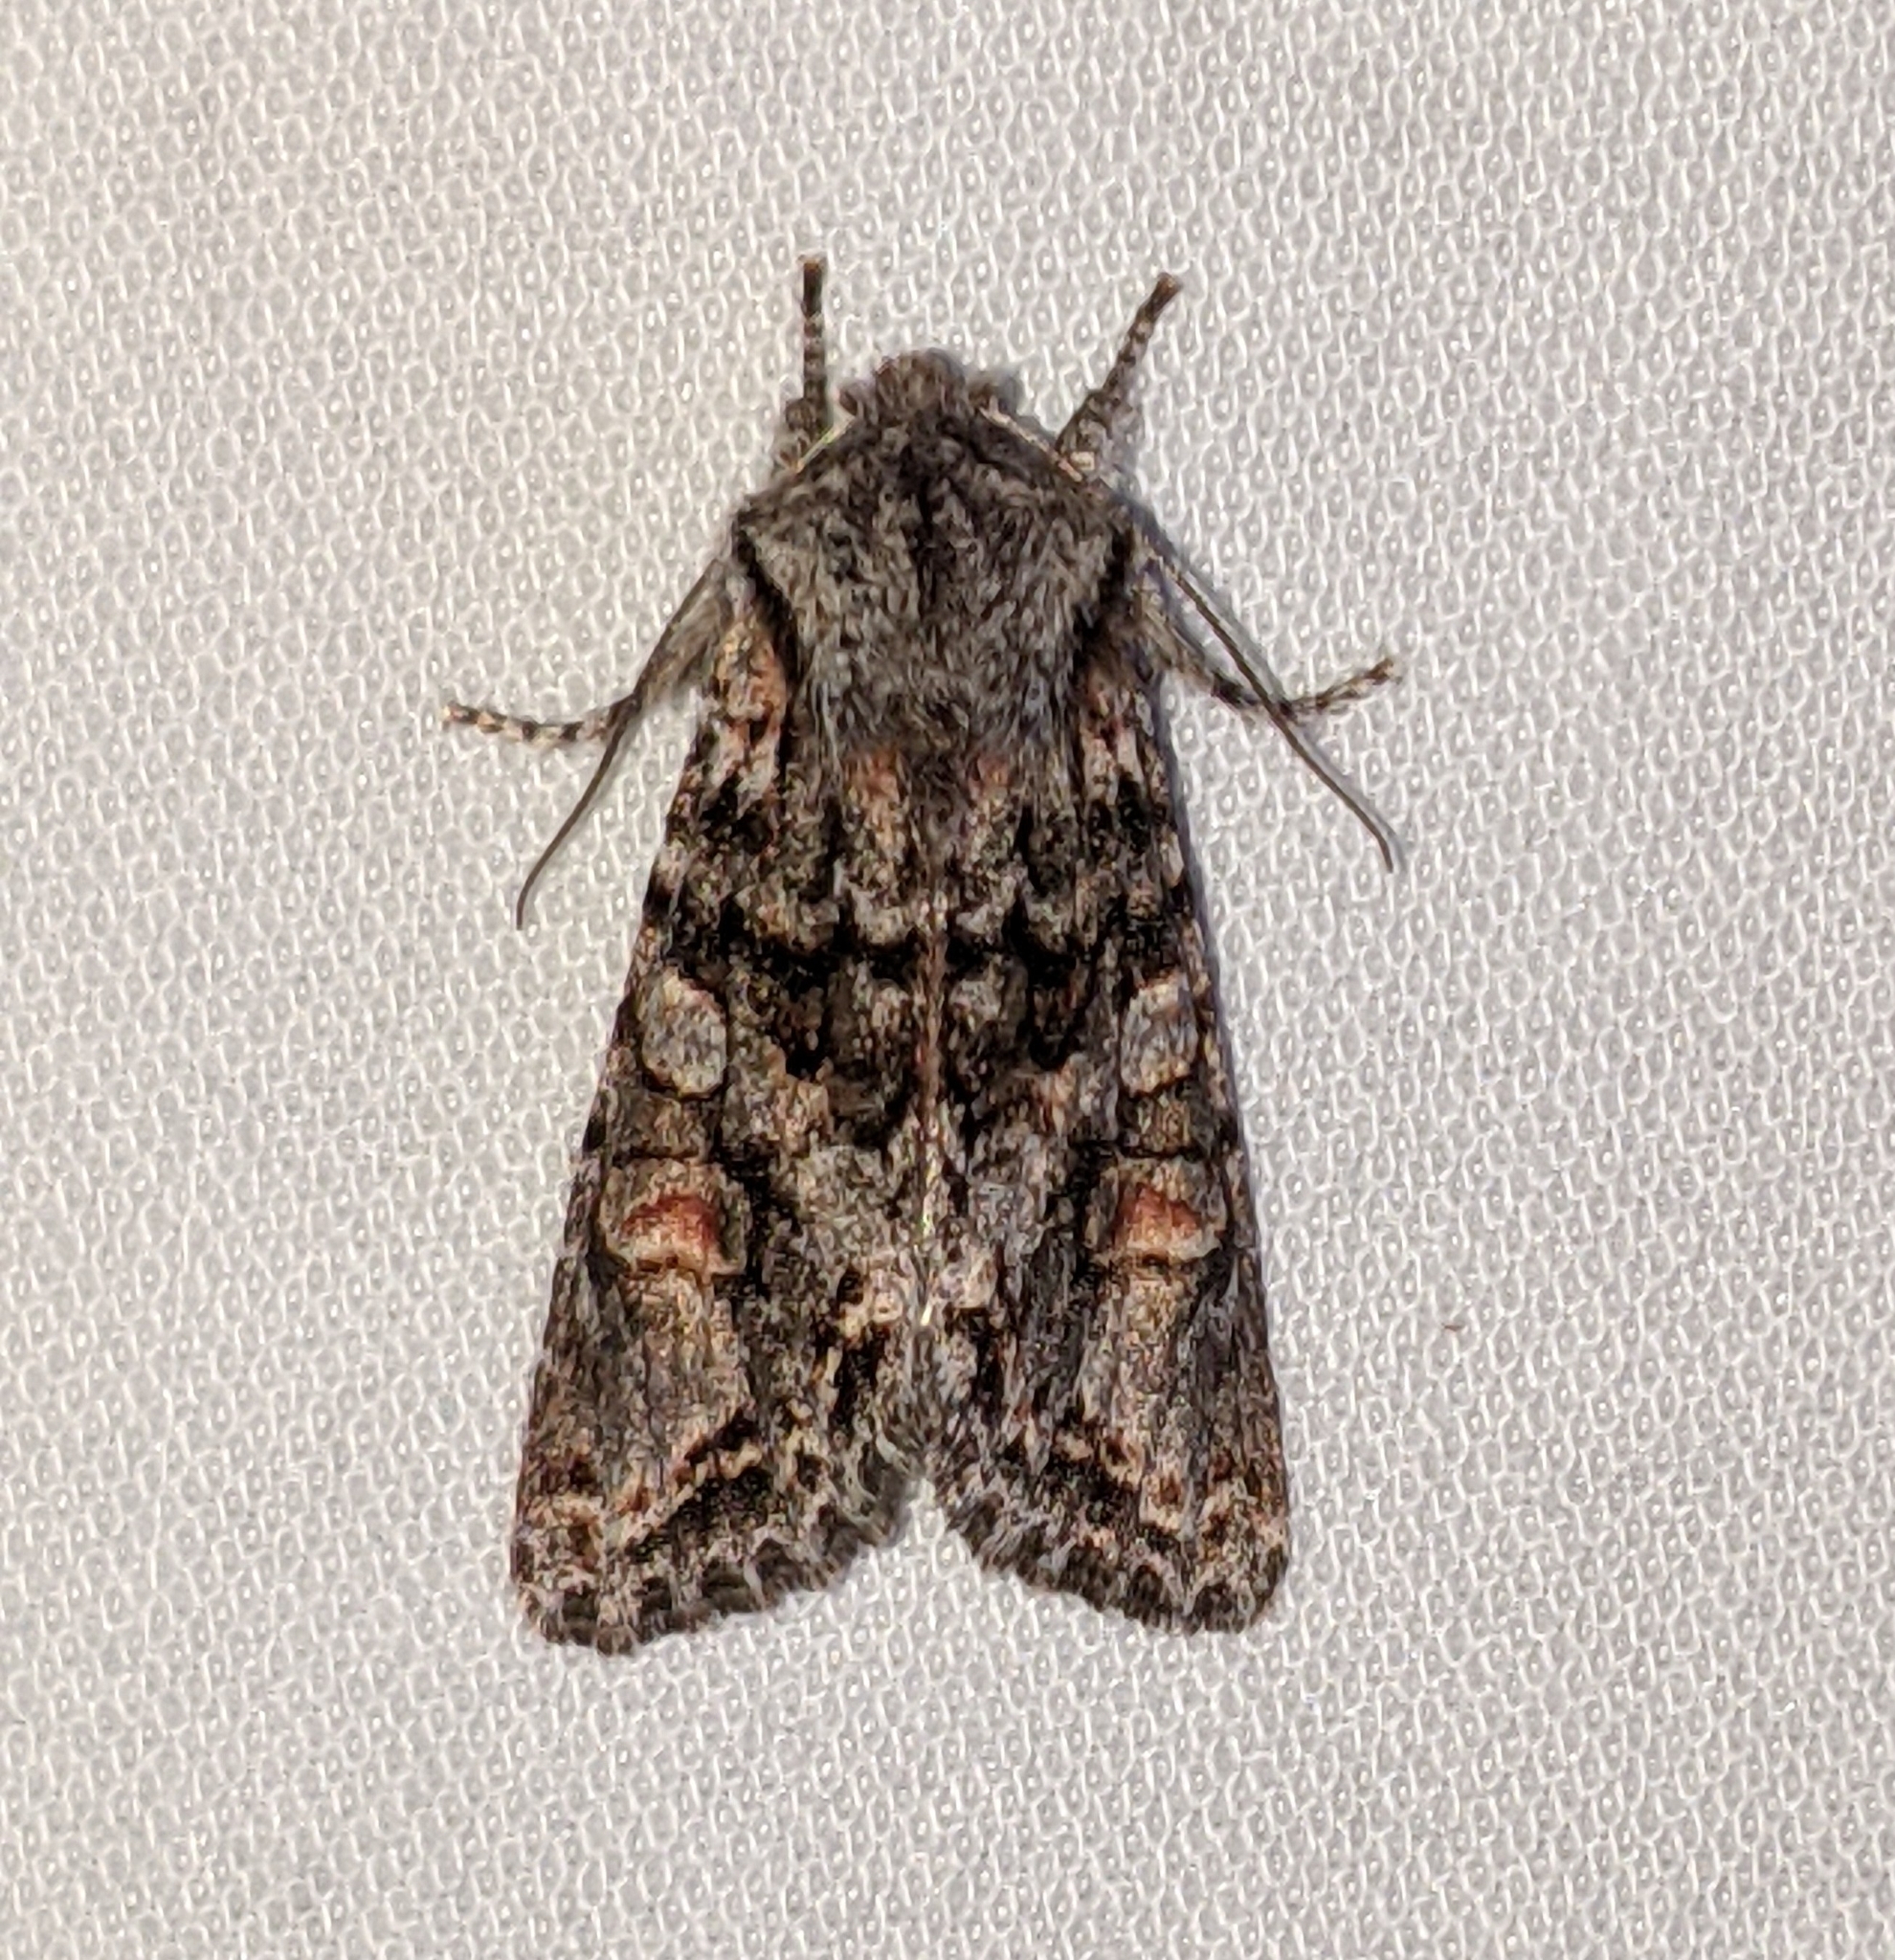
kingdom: Animalia
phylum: Arthropoda
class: Insecta
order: Lepidoptera
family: Noctuidae
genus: Egira
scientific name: Egira perlubens
